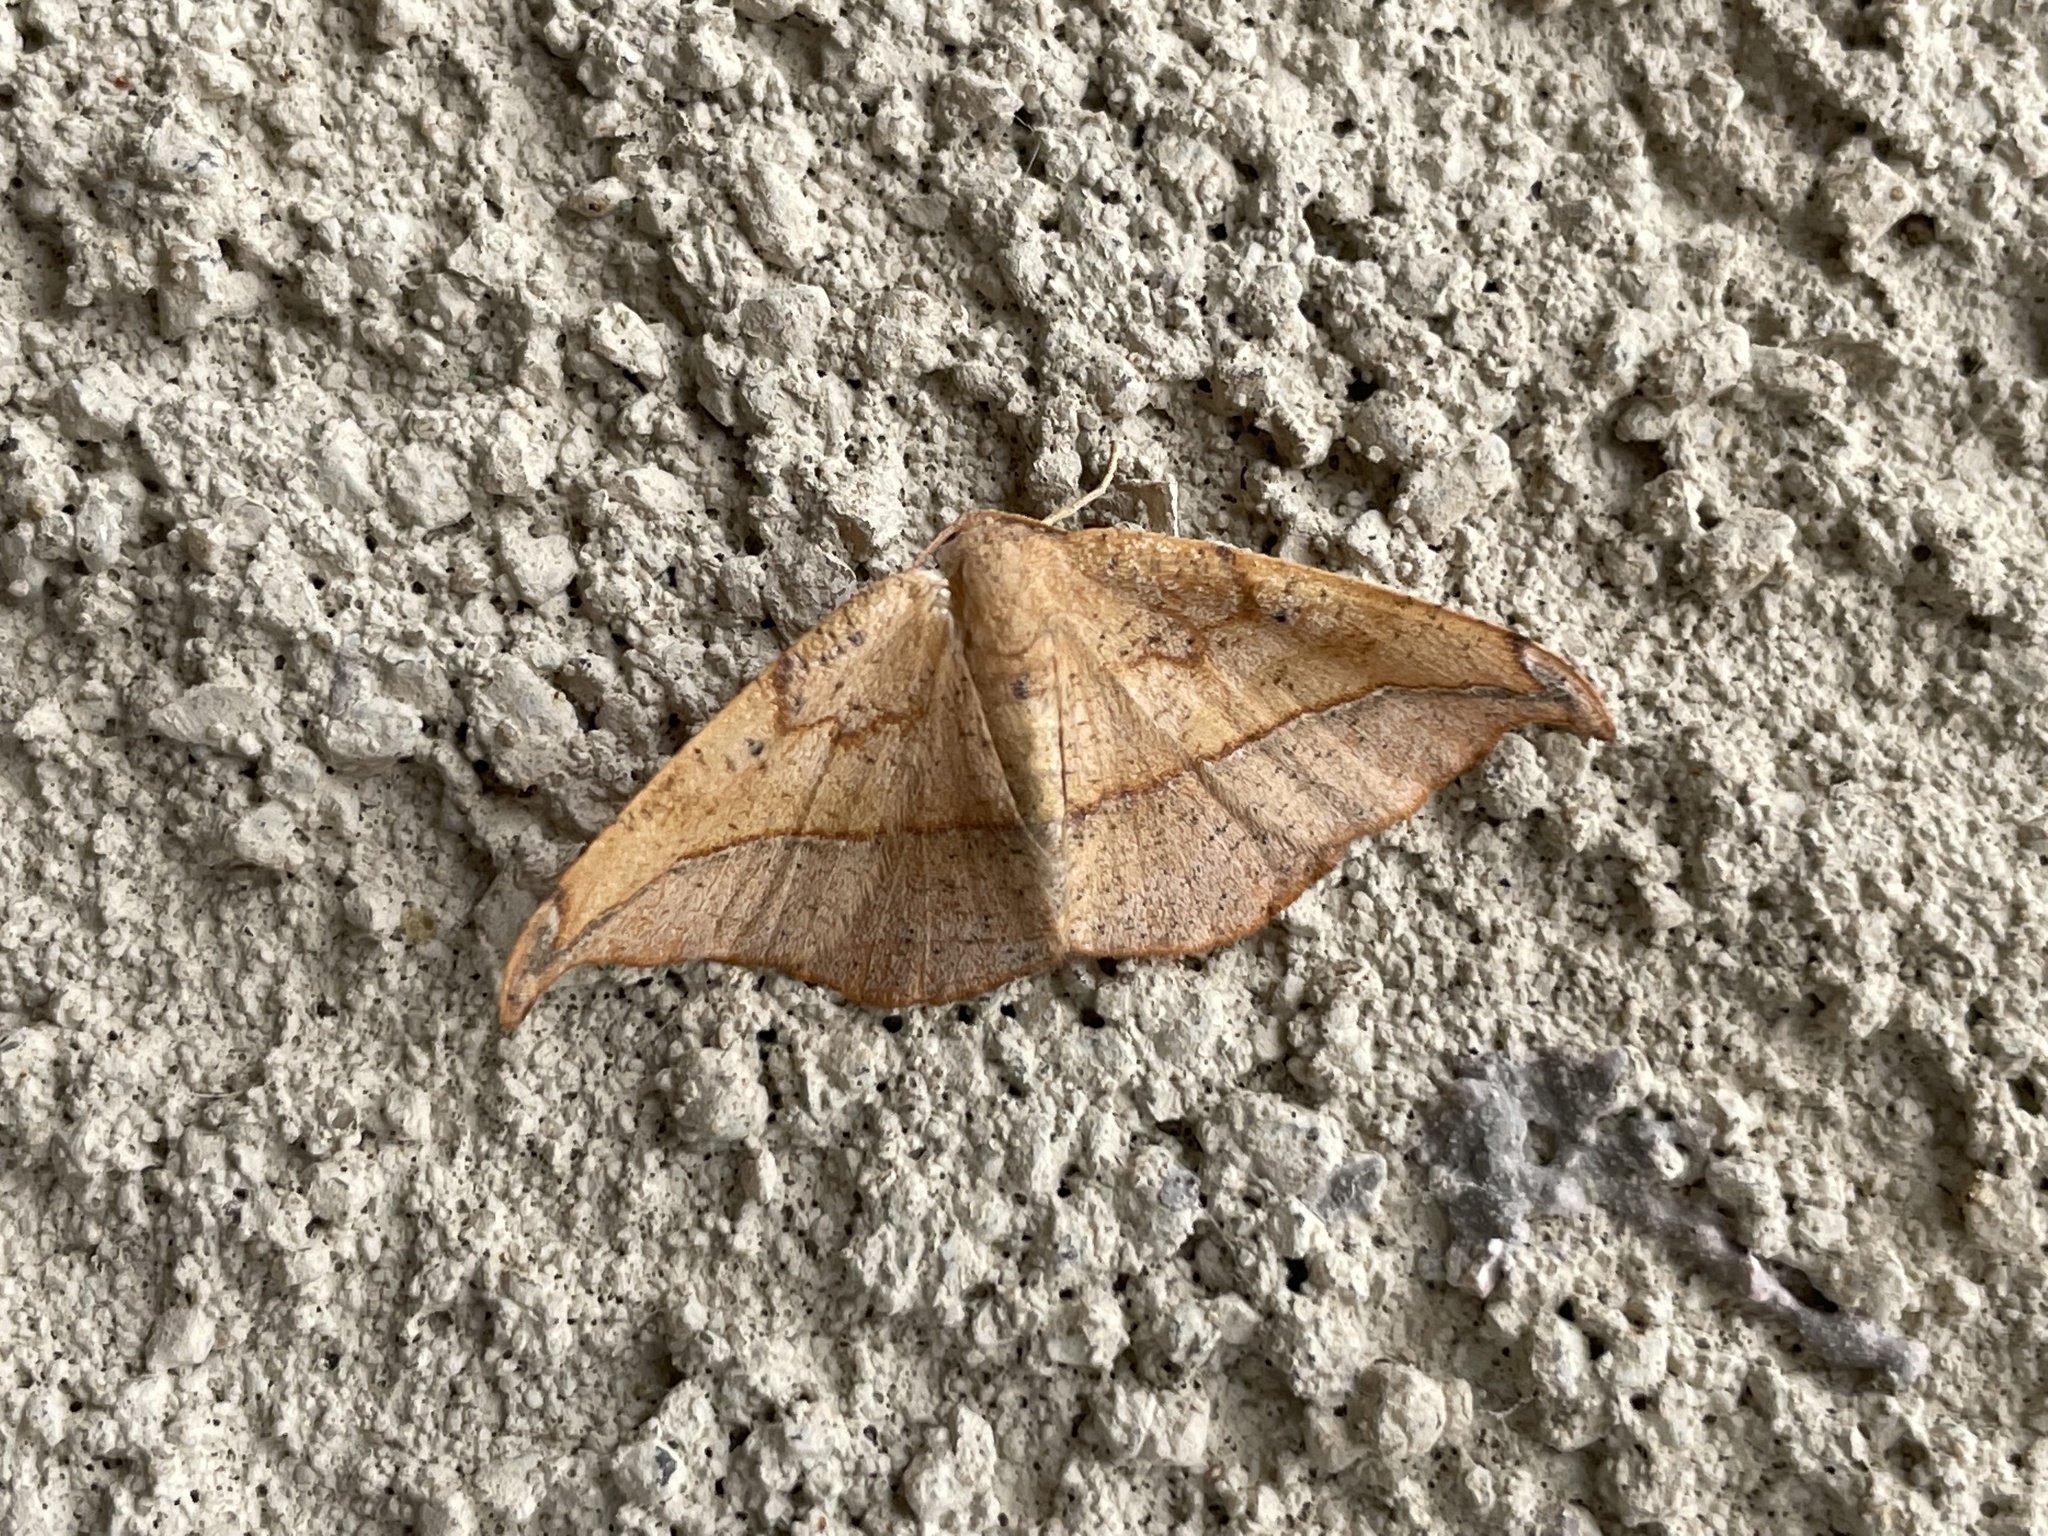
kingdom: Animalia
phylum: Arthropoda
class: Insecta
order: Lepidoptera
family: Geometridae
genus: Patalene
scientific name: Patalene olyzonaria
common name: Juniper geometer moth
